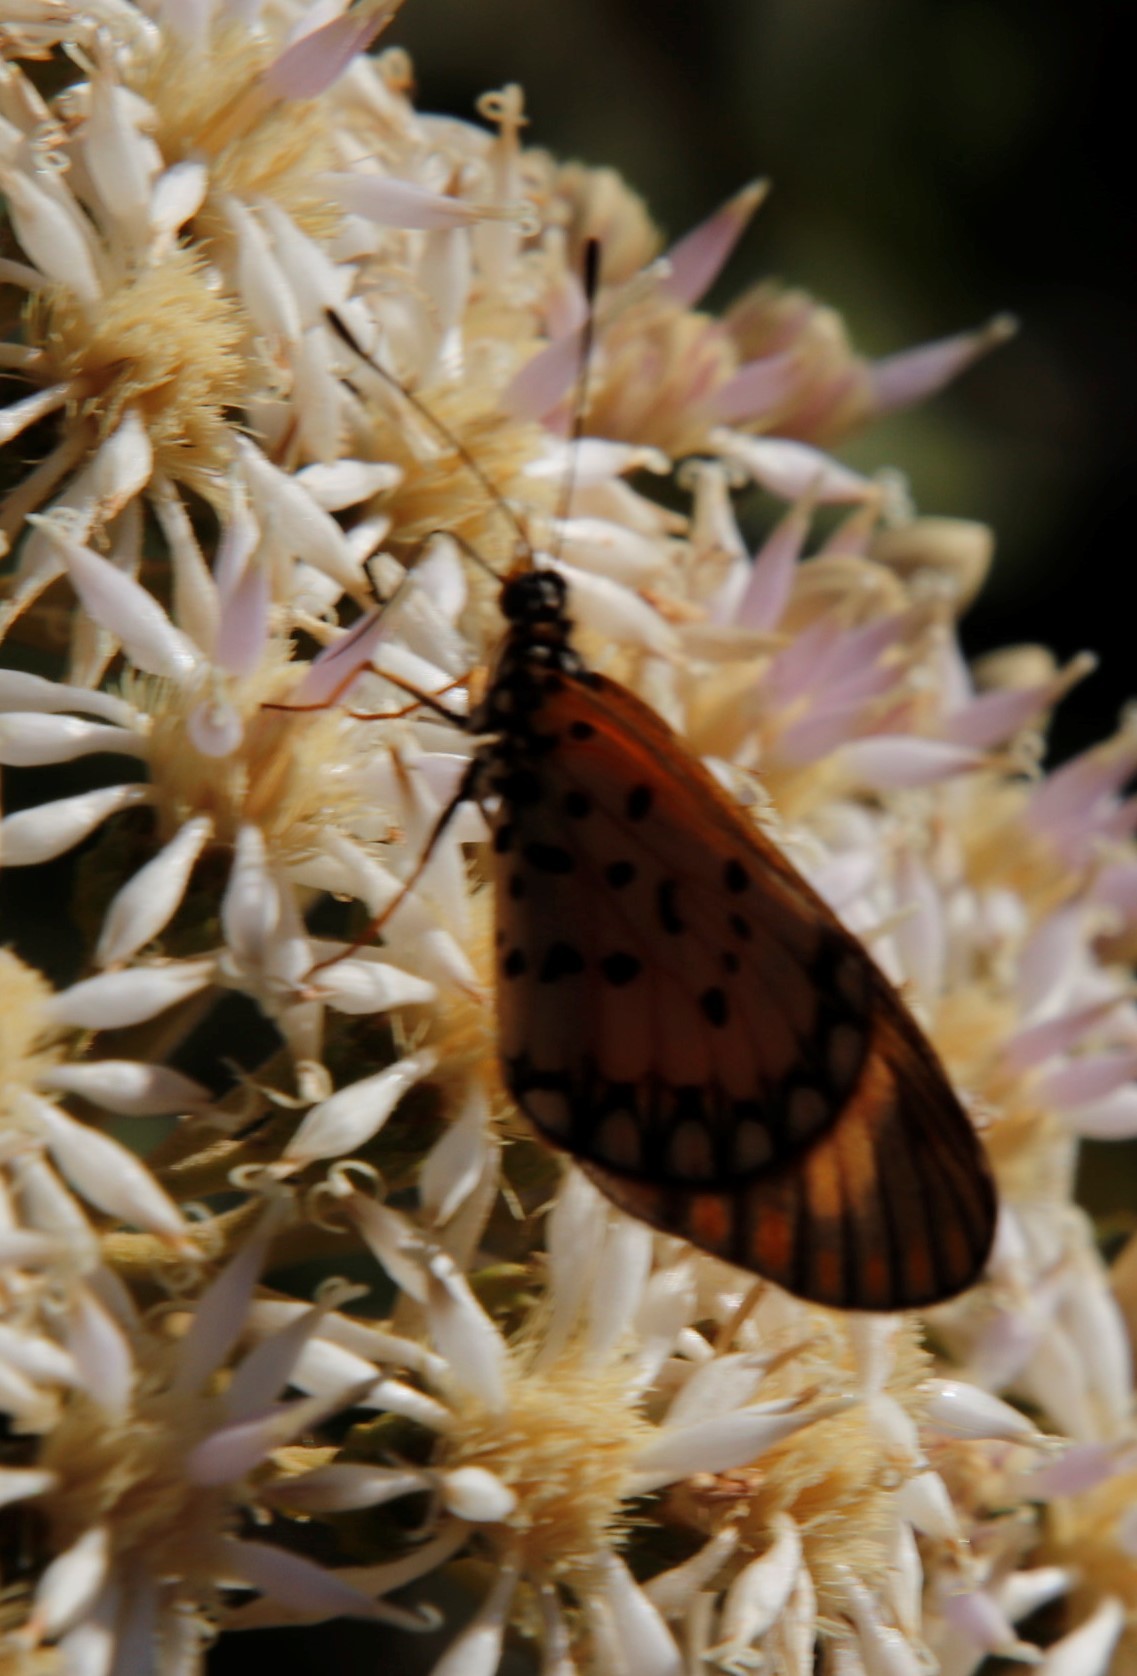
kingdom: Animalia
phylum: Arthropoda
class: Insecta
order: Lepidoptera
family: Nymphalidae
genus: Acraea
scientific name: Acraea Telchinia serena
